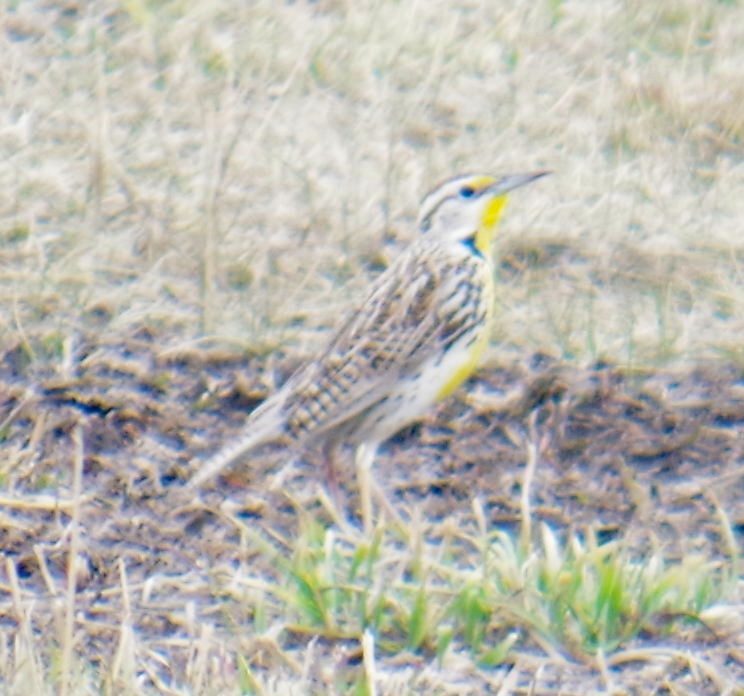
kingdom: Animalia
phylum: Chordata
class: Aves
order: Passeriformes
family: Icteridae
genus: Sturnella
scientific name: Sturnella neglecta
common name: Western meadowlark
